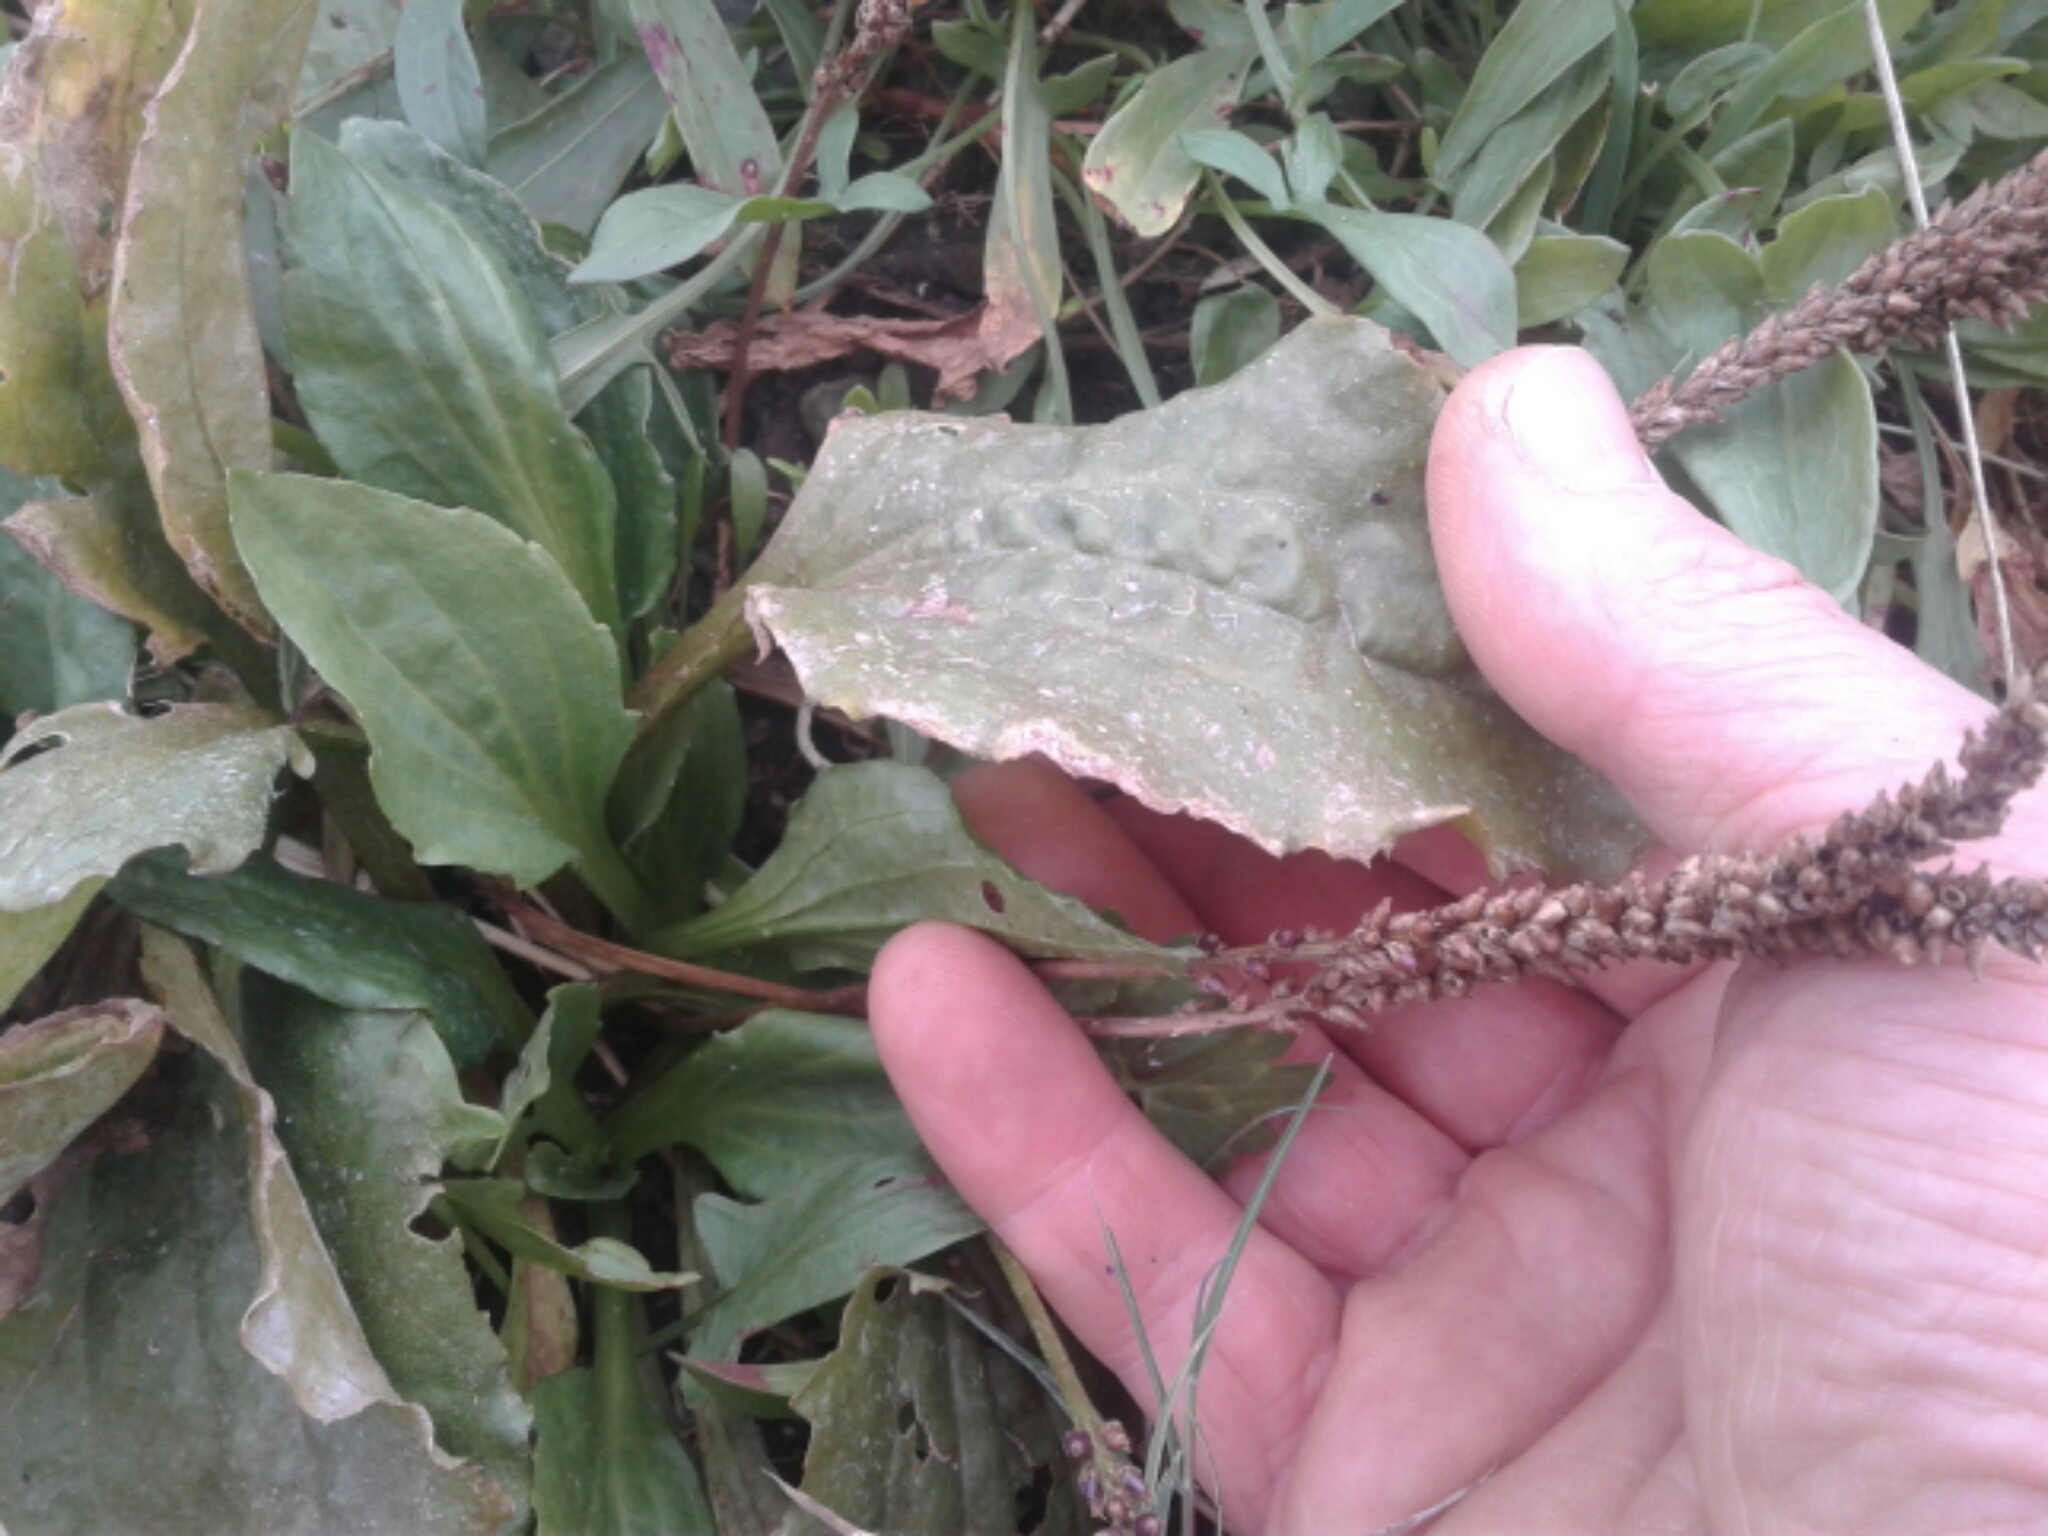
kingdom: Plantae
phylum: Tracheophyta
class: Magnoliopsida
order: Lamiales
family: Plantaginaceae
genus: Plantago
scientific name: Plantago major
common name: Common plantain
